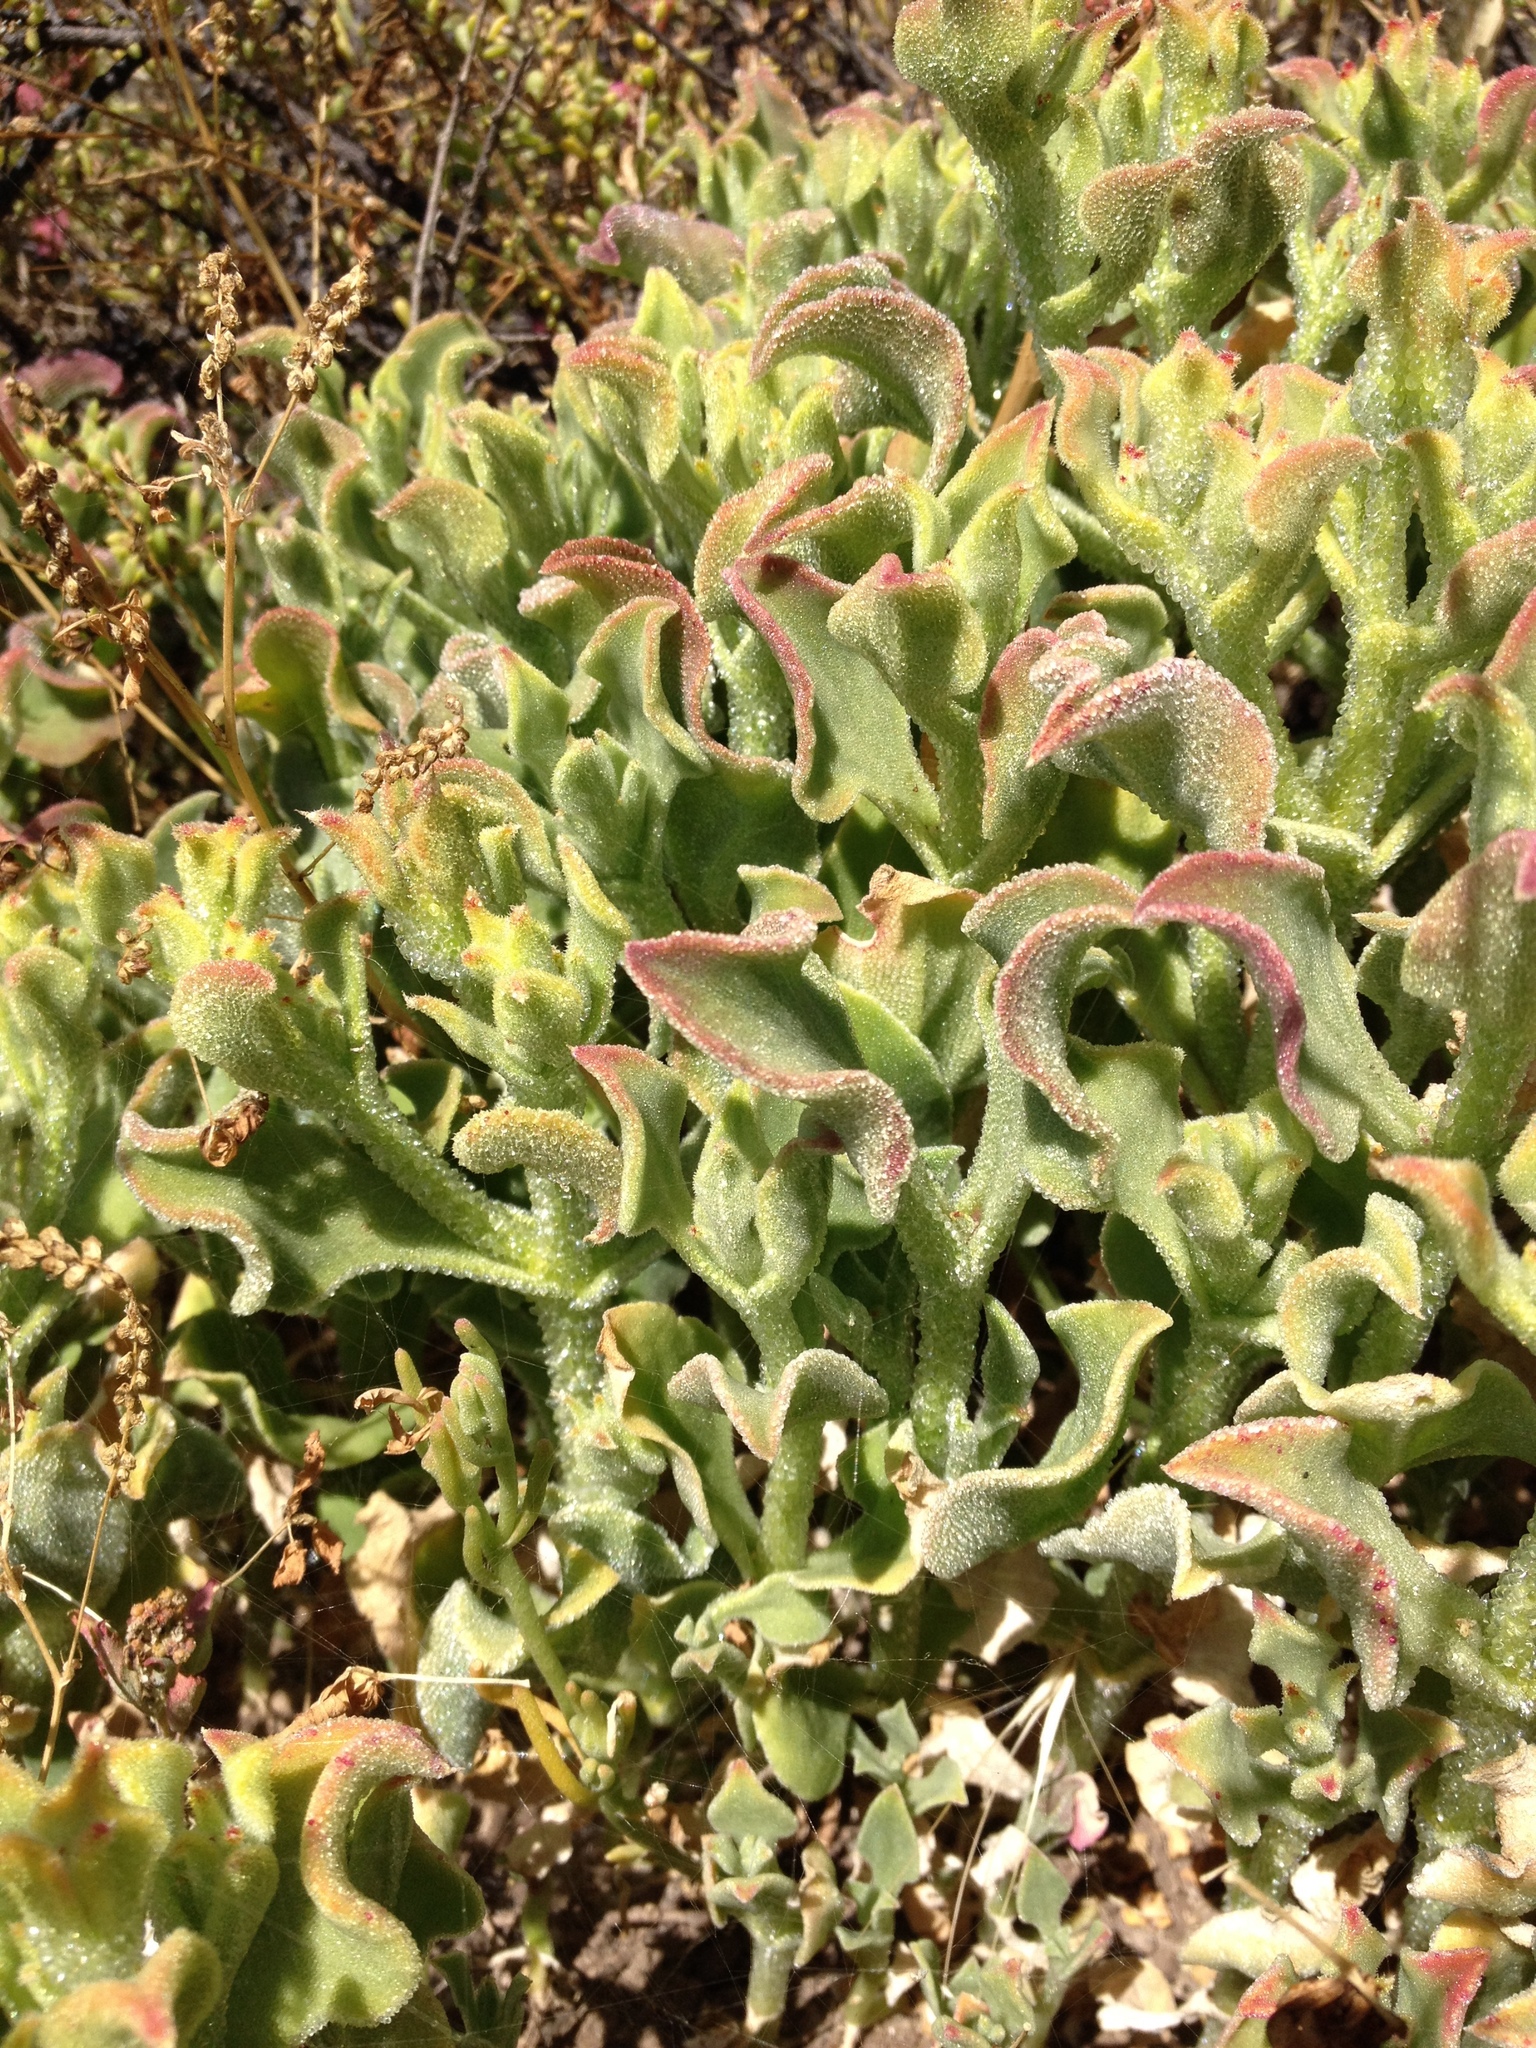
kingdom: Plantae
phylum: Tracheophyta
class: Magnoliopsida
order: Caryophyllales
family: Aizoaceae
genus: Mesembryanthemum
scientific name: Mesembryanthemum crystallinum
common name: Common iceplant
